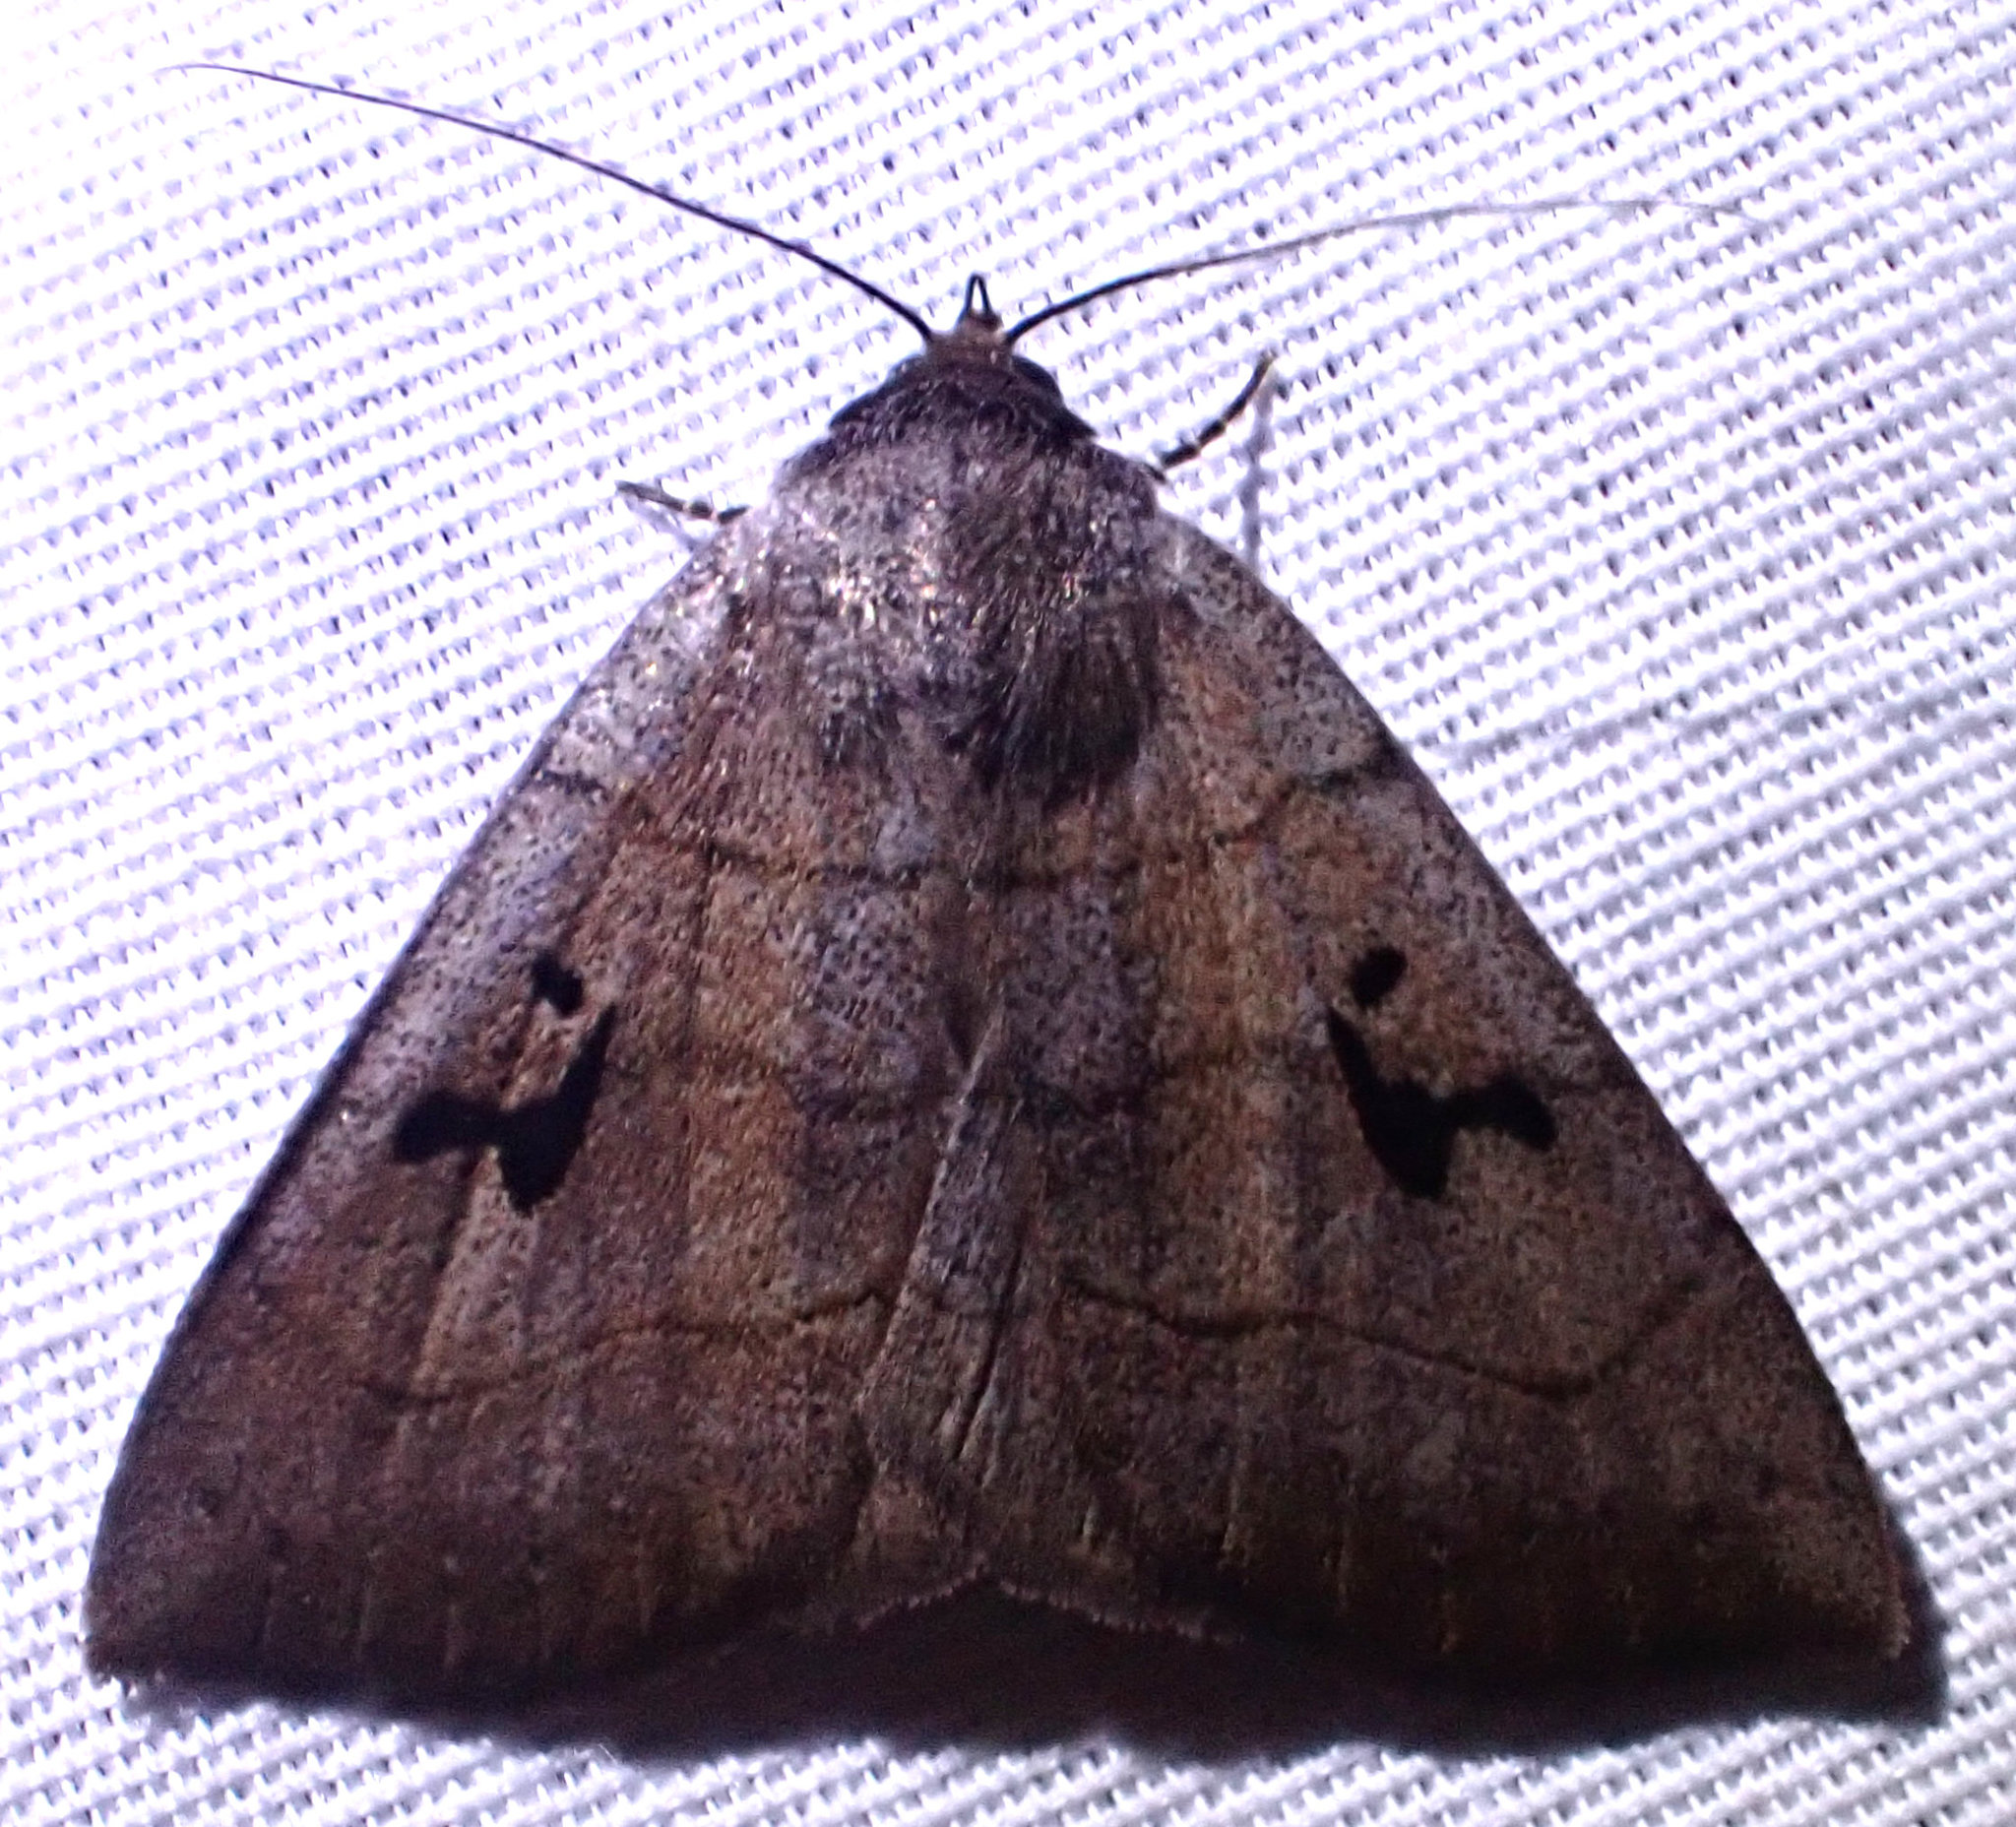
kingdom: Animalia
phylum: Arthropoda
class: Insecta
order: Lepidoptera
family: Erebidae
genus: Panopoda
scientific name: Panopoda carneicosta
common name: Brown panopoda moth
